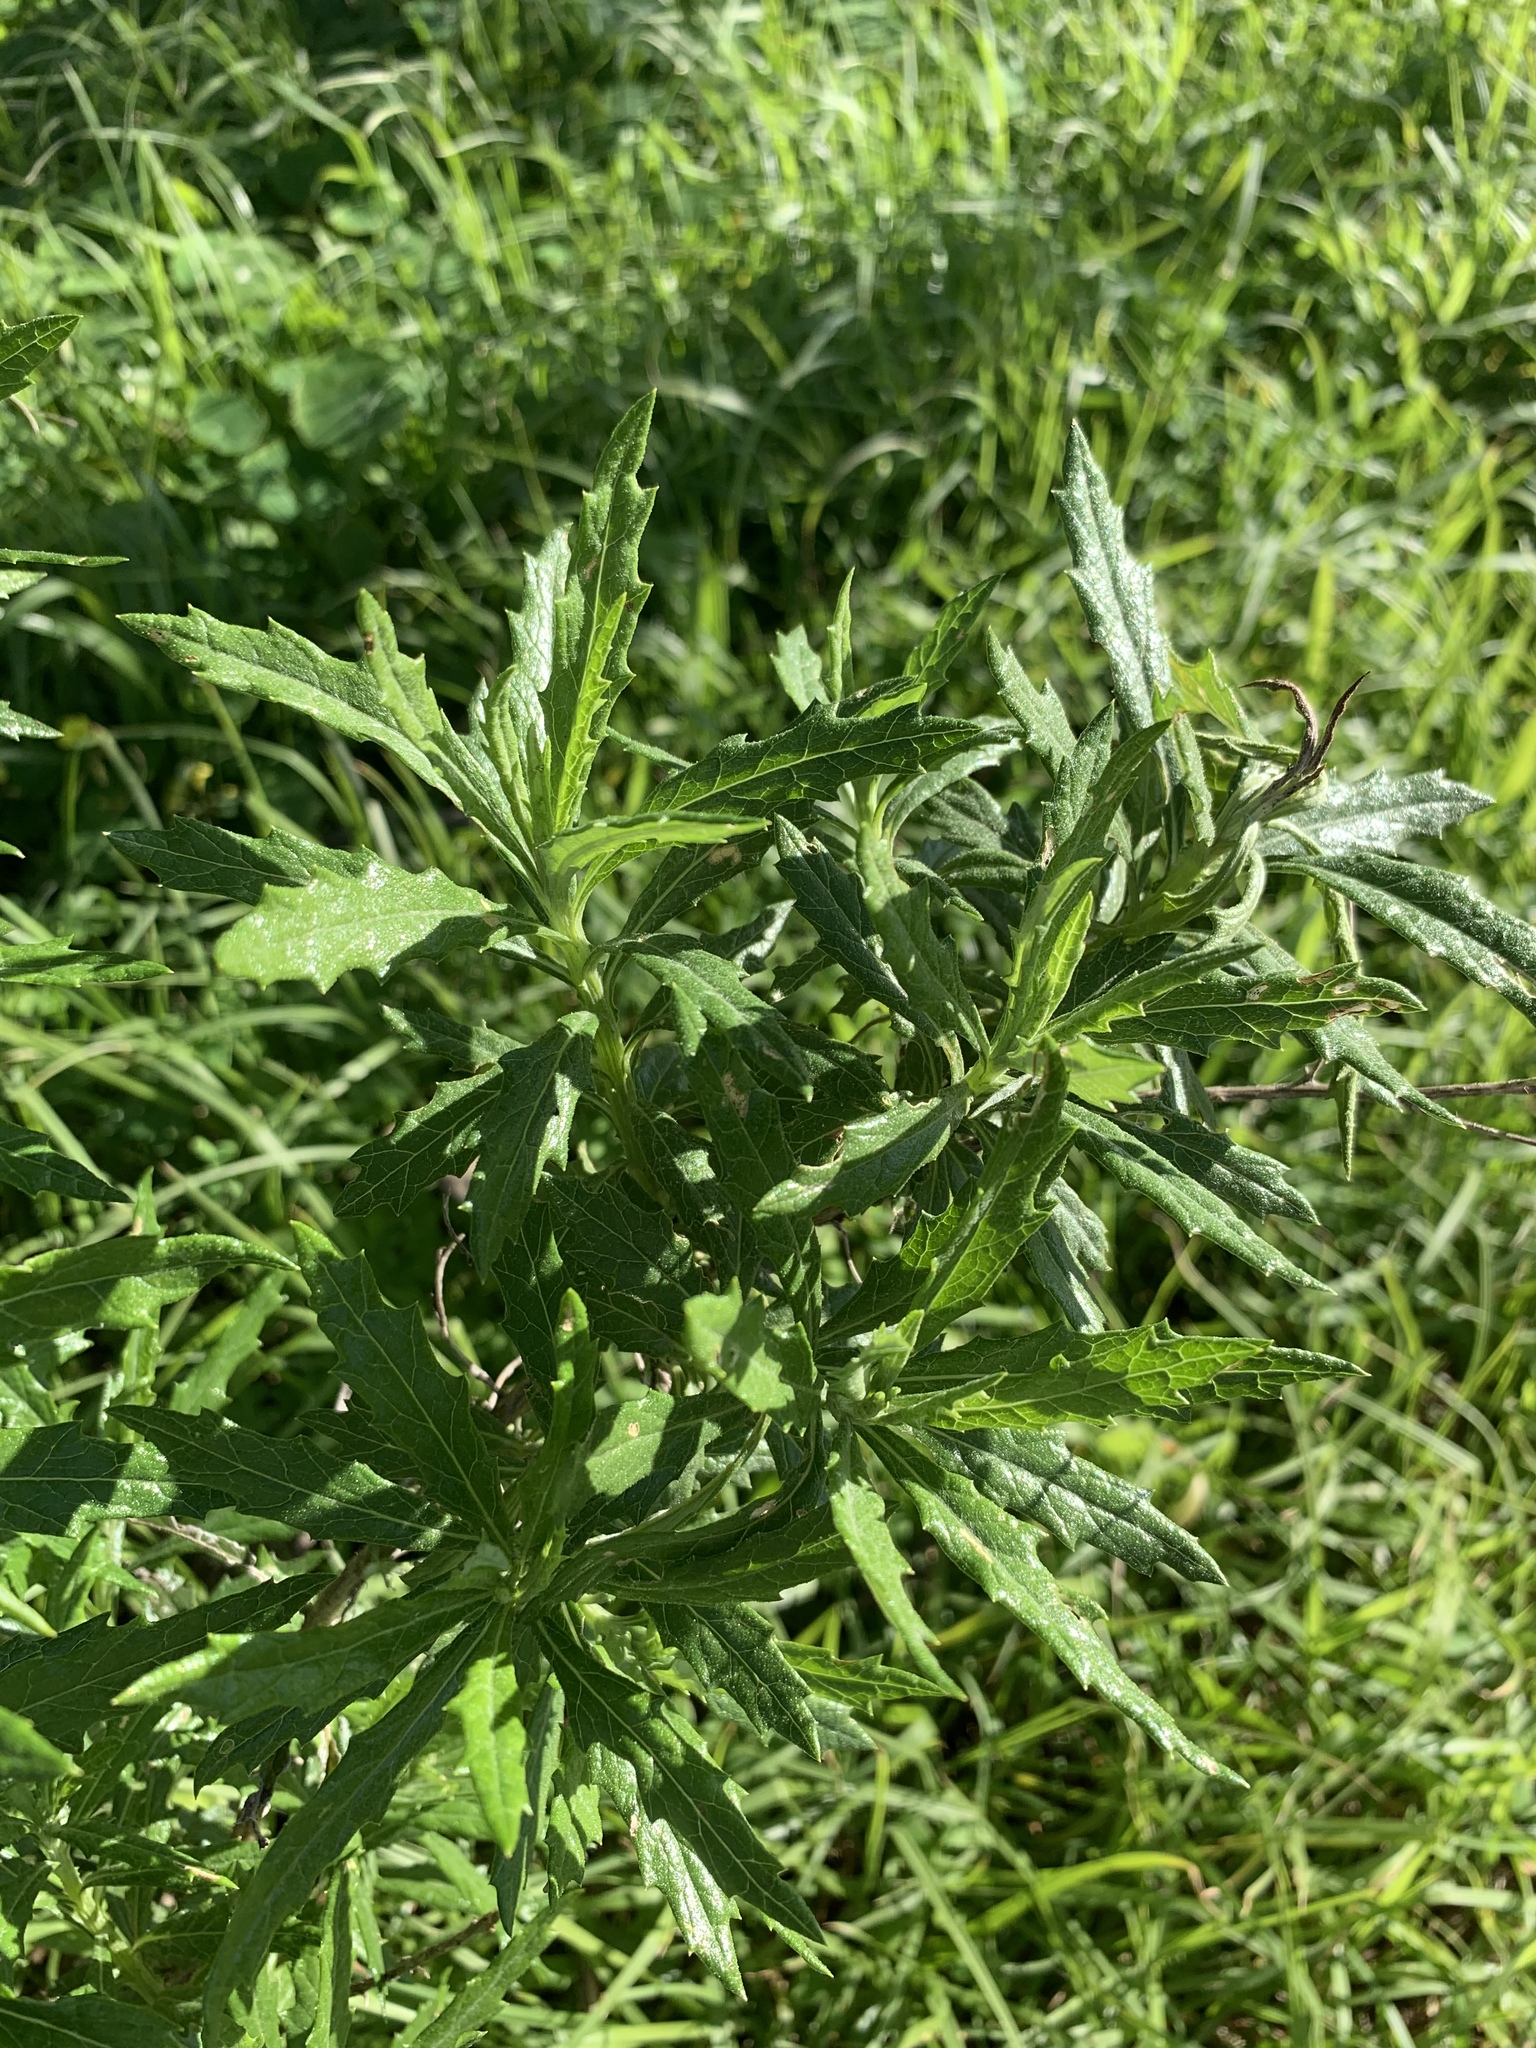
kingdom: Plantae
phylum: Tracheophyta
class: Magnoliopsida
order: Asterales
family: Asteraceae
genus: Senecio
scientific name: Senecio pterophorus
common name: Shoddy ragwort
